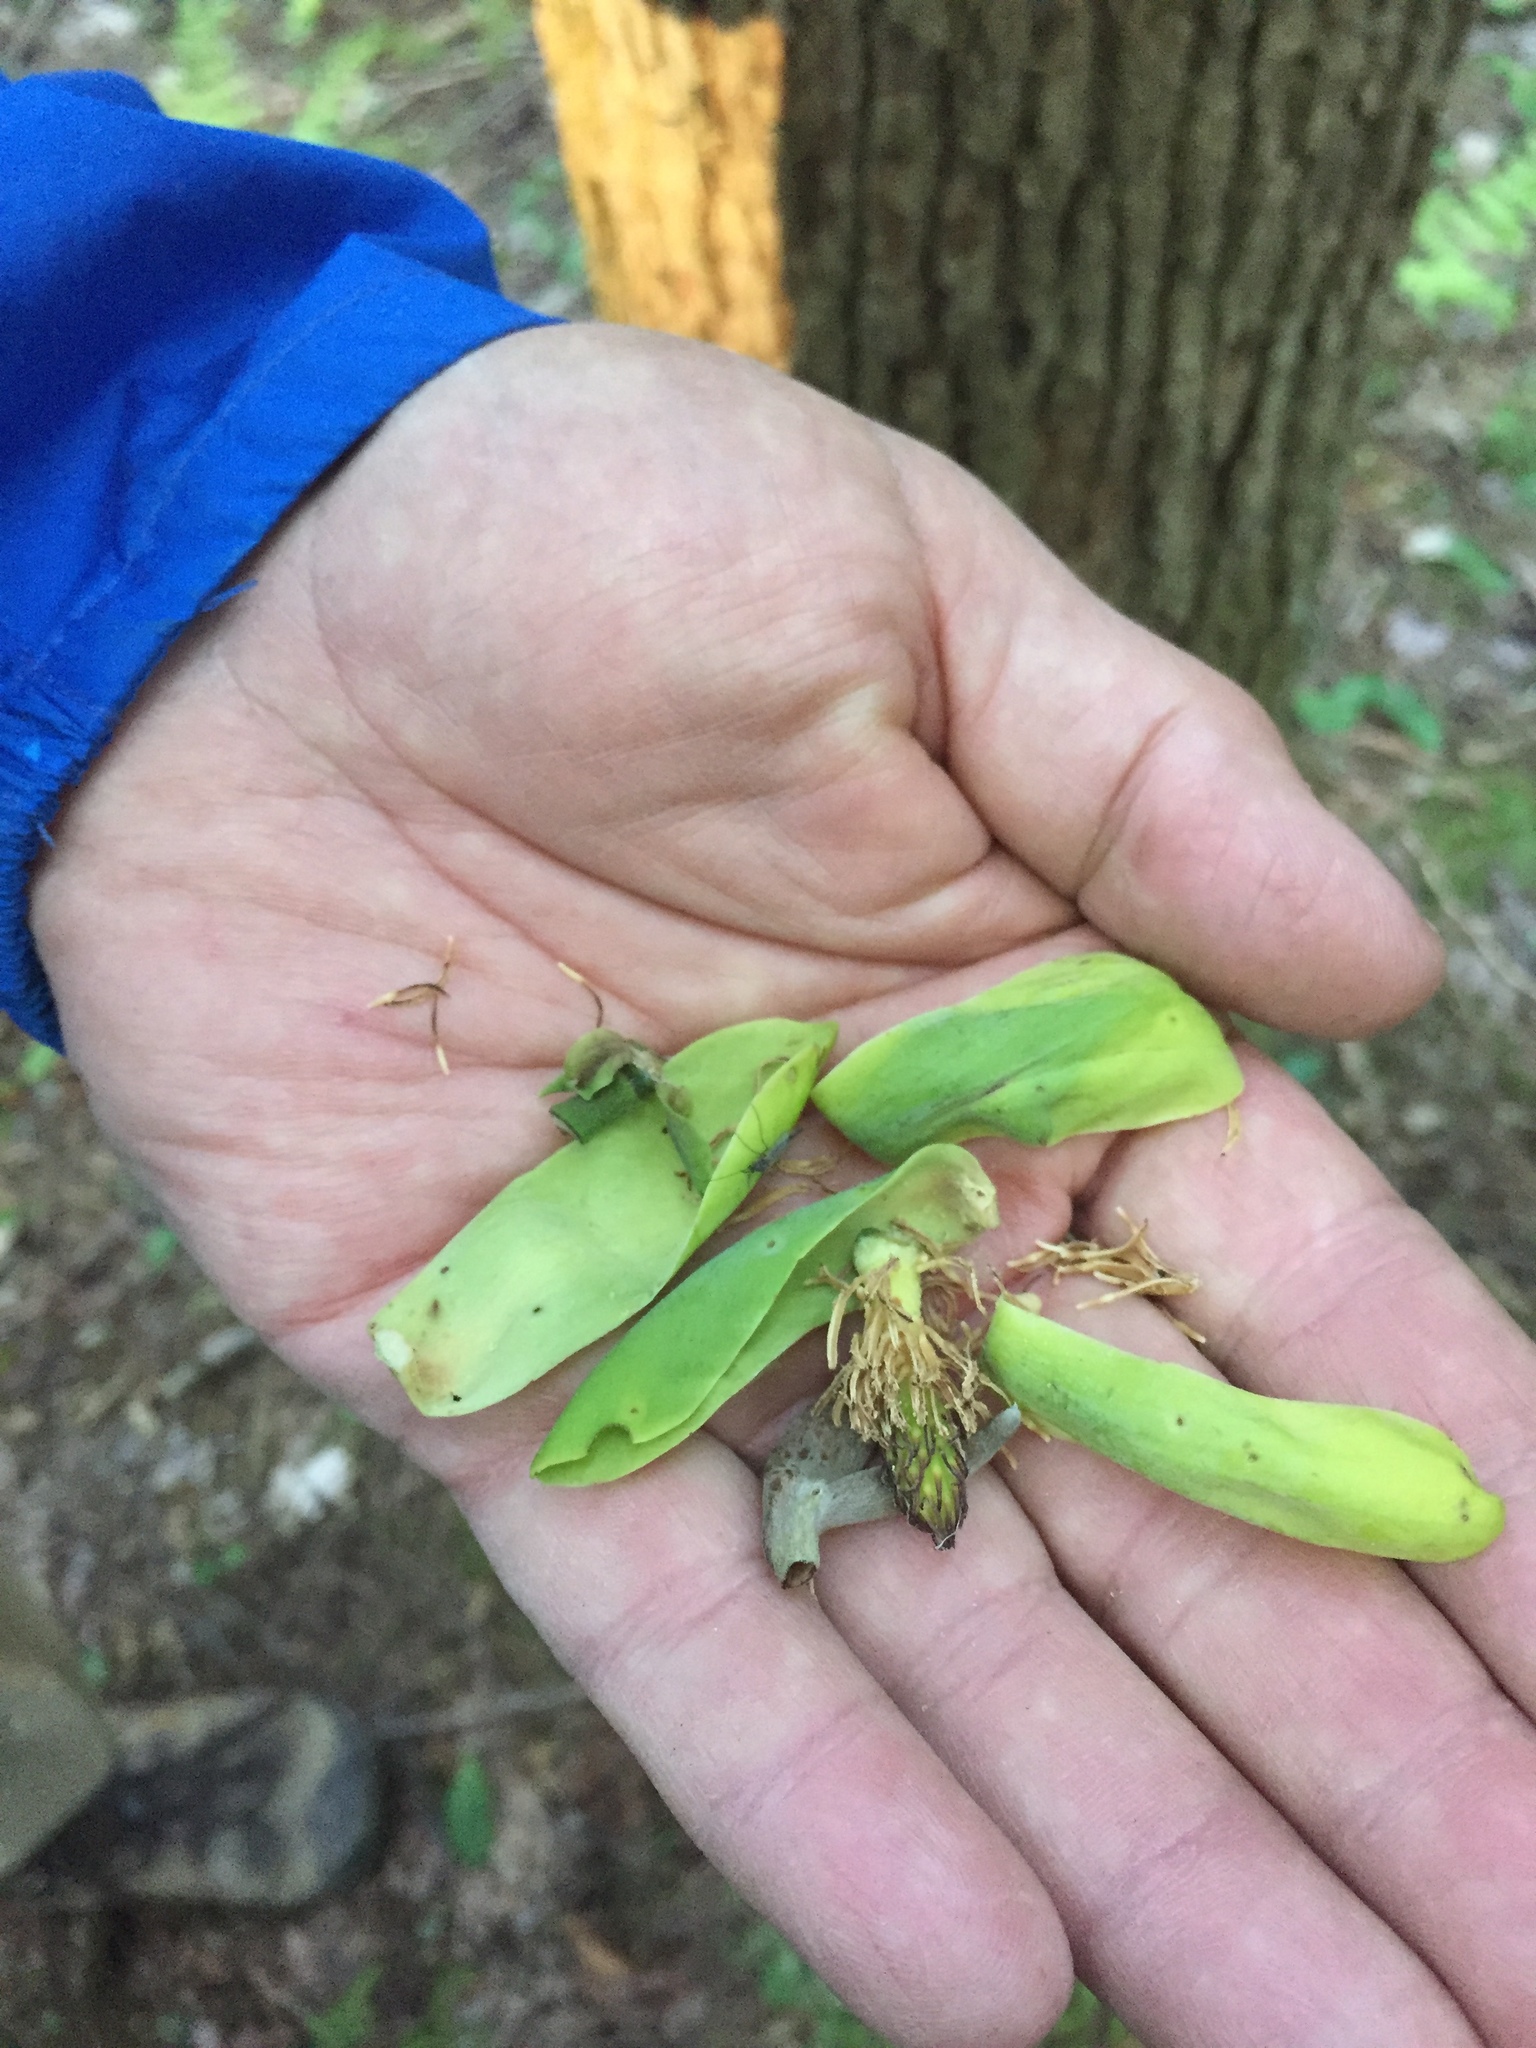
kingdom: Plantae
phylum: Tracheophyta
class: Magnoliopsida
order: Magnoliales
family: Magnoliaceae
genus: Magnolia
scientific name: Magnolia acuminata
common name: Cucumber magnolia
